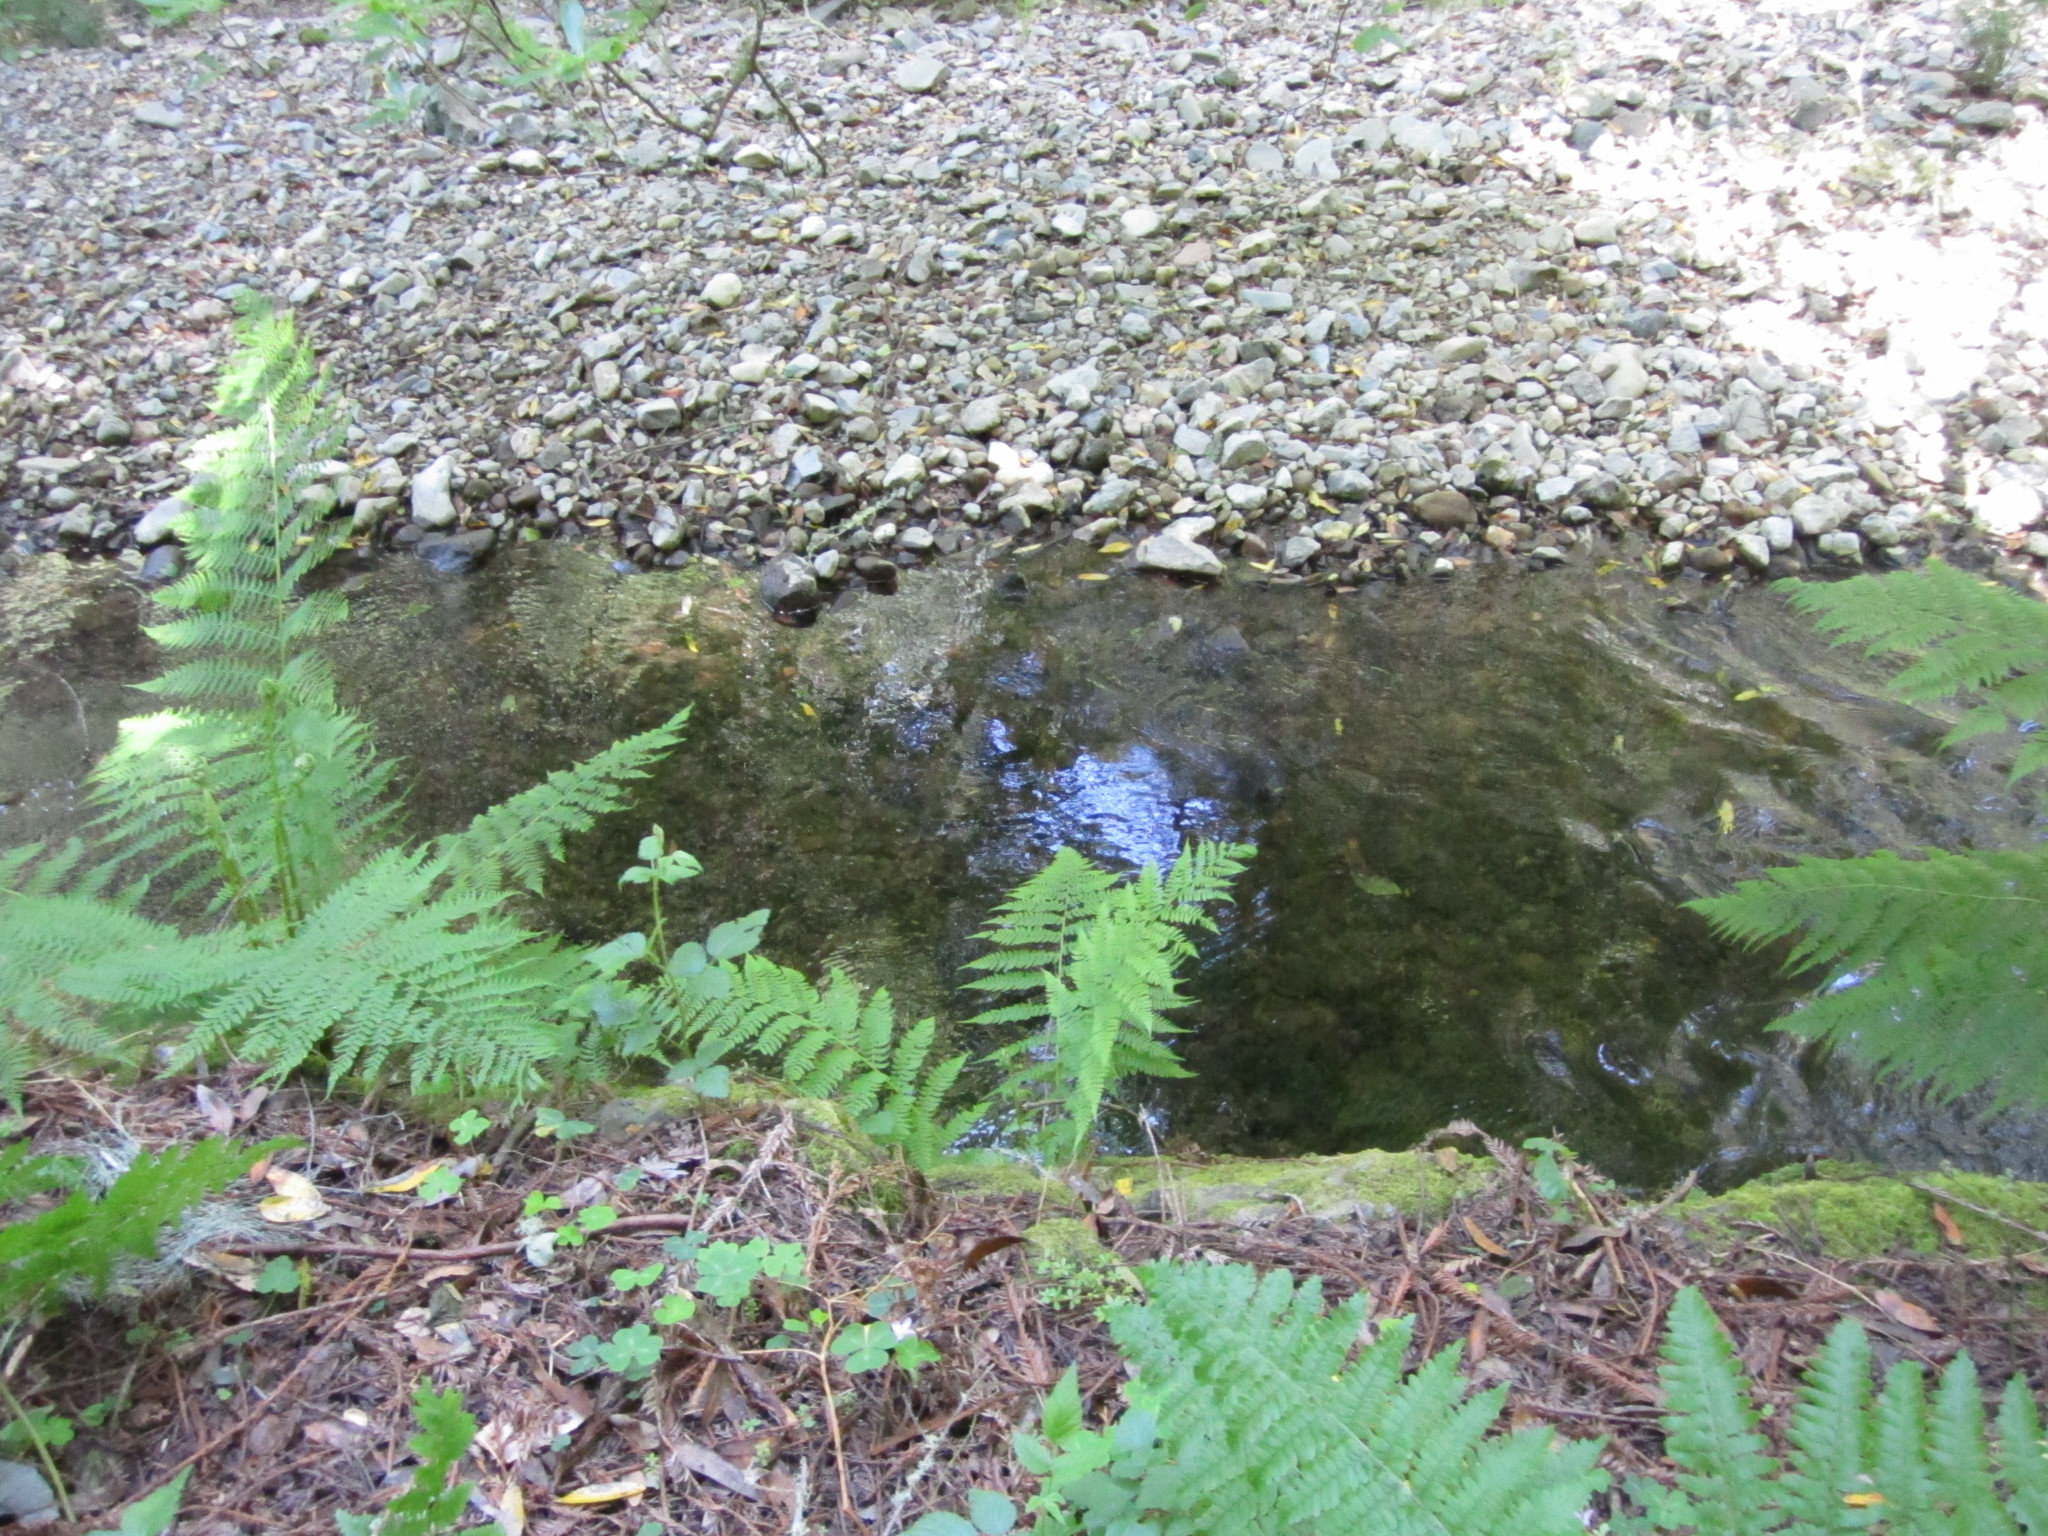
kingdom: Plantae
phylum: Tracheophyta
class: Polypodiopsida
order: Polypodiales
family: Athyriaceae
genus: Athyrium
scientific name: Athyrium filix-femina
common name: Lady fern
